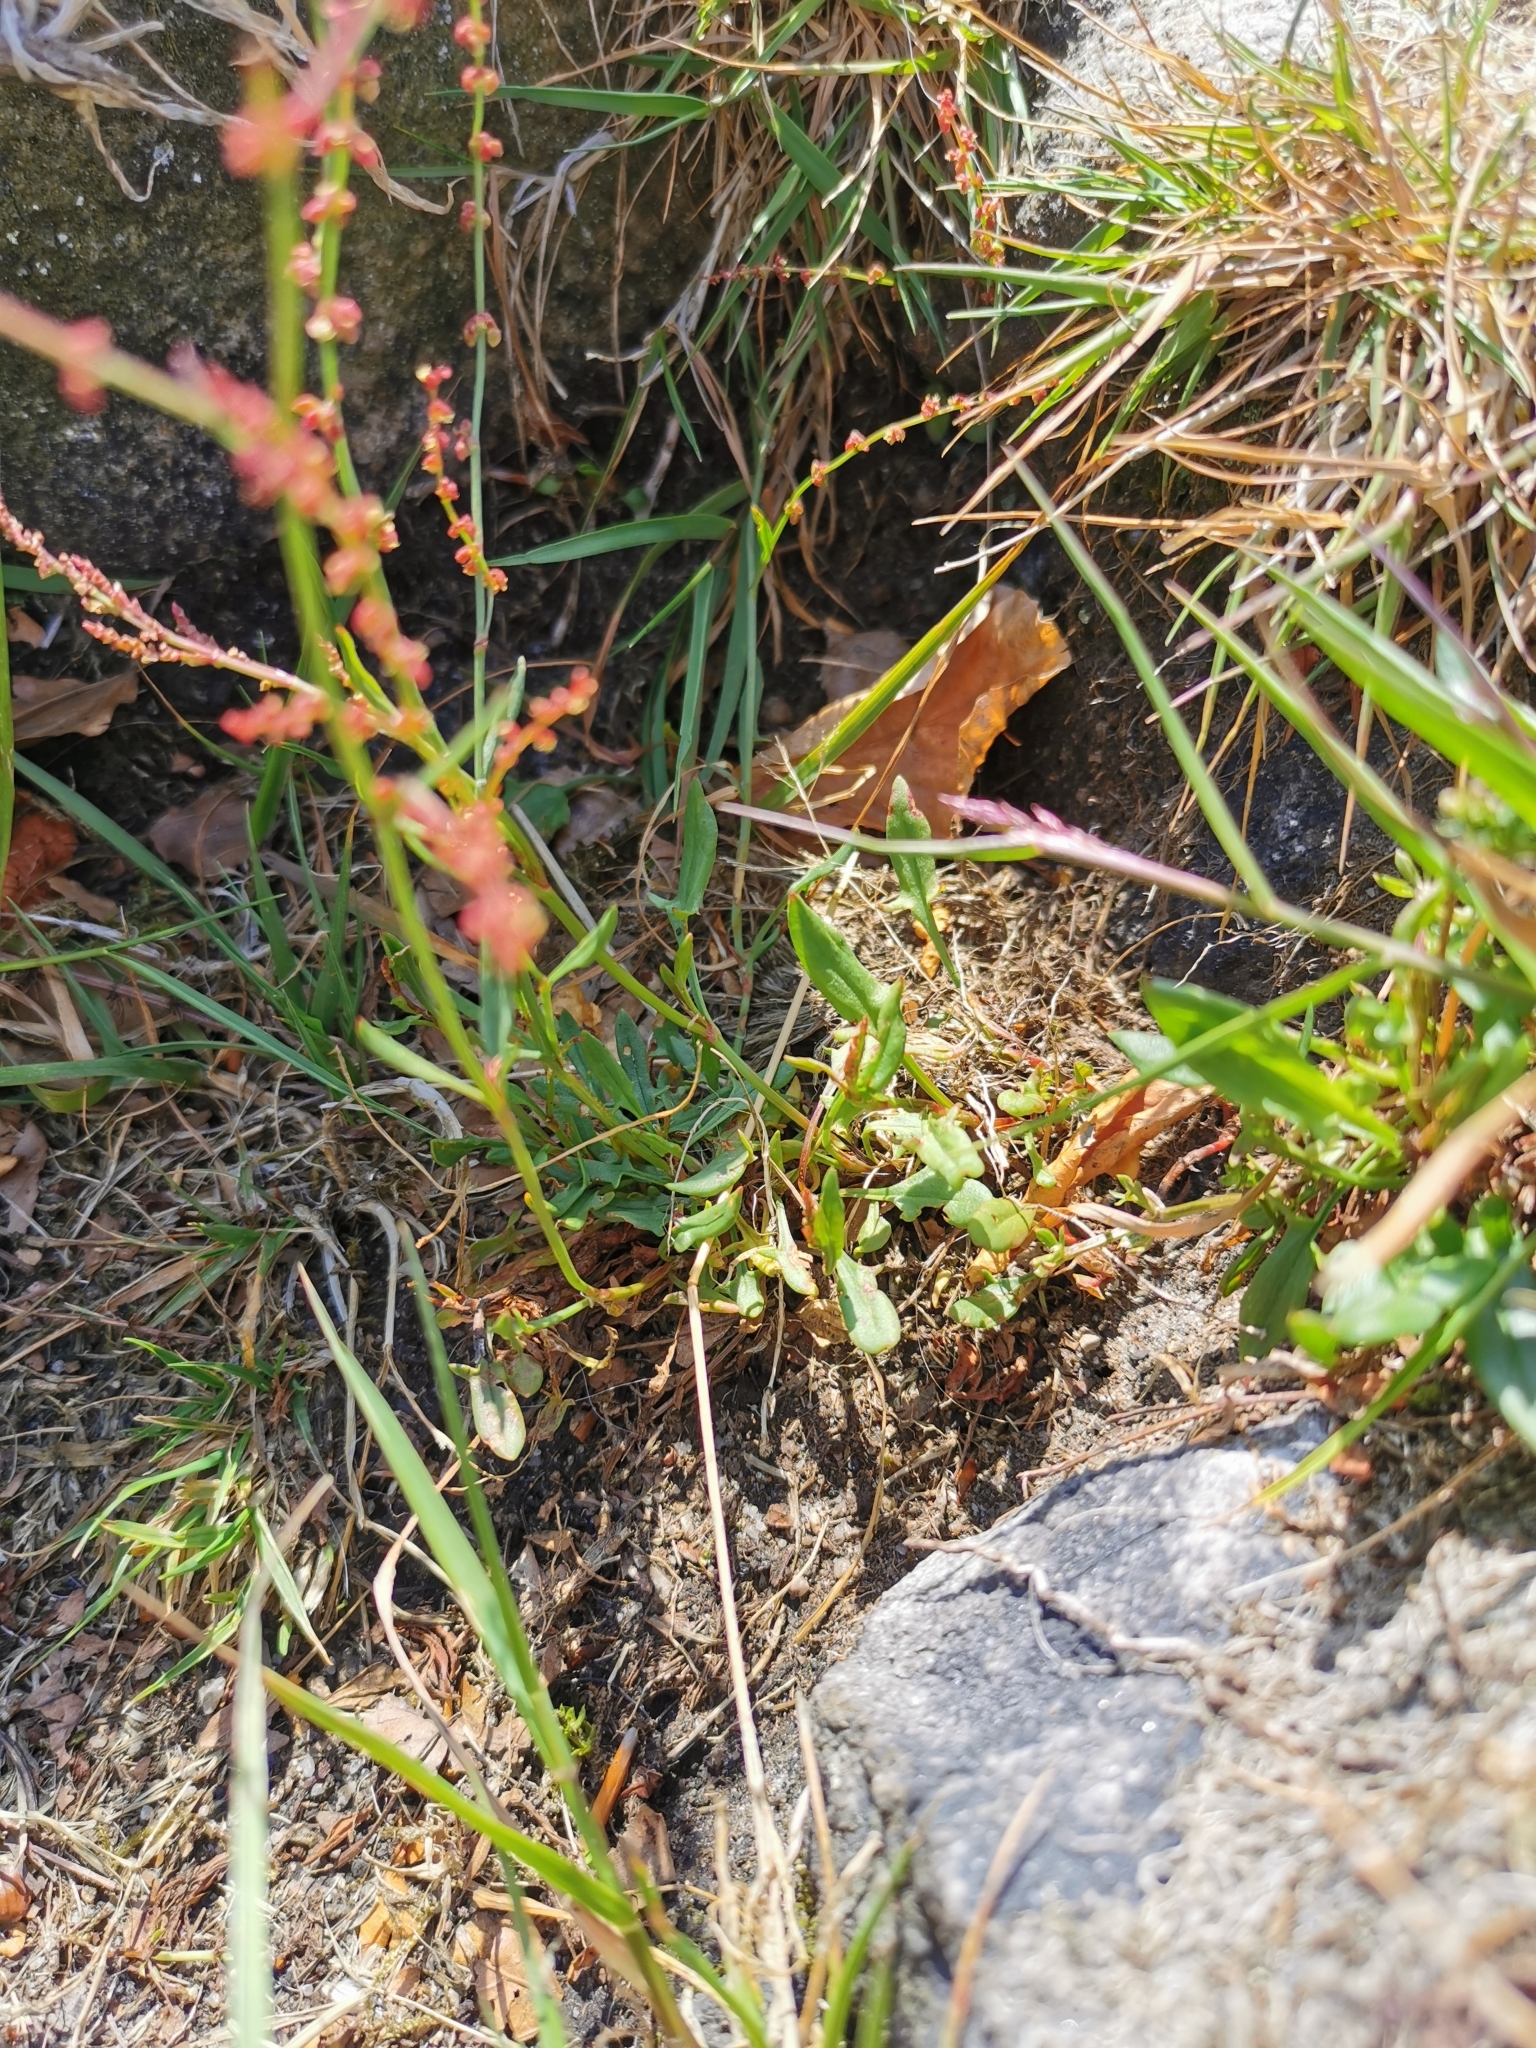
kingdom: Plantae
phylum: Tracheophyta
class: Magnoliopsida
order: Caryophyllales
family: Polygonaceae
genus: Rumex
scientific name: Rumex acetosella
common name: Common sheep sorrel
